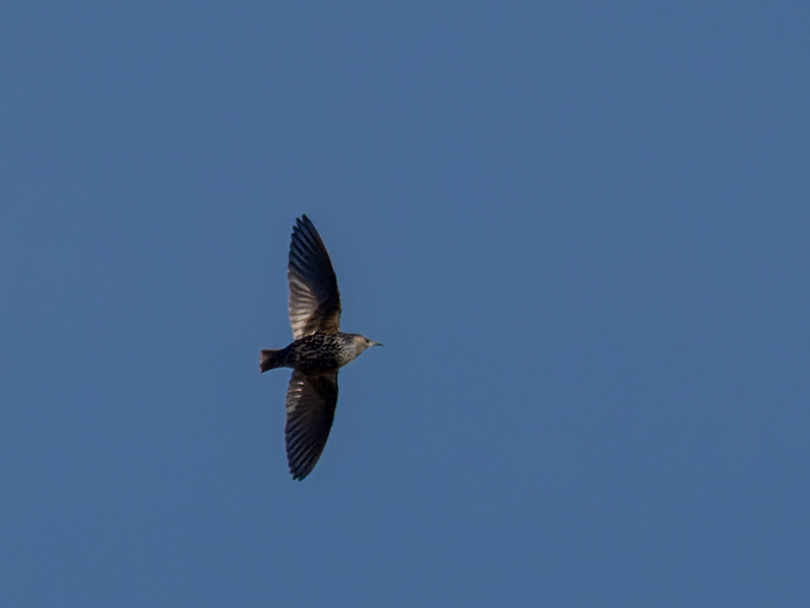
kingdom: Animalia
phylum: Chordata
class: Aves
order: Passeriformes
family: Sturnidae
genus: Sturnus
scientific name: Sturnus vulgaris
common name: Common starling
